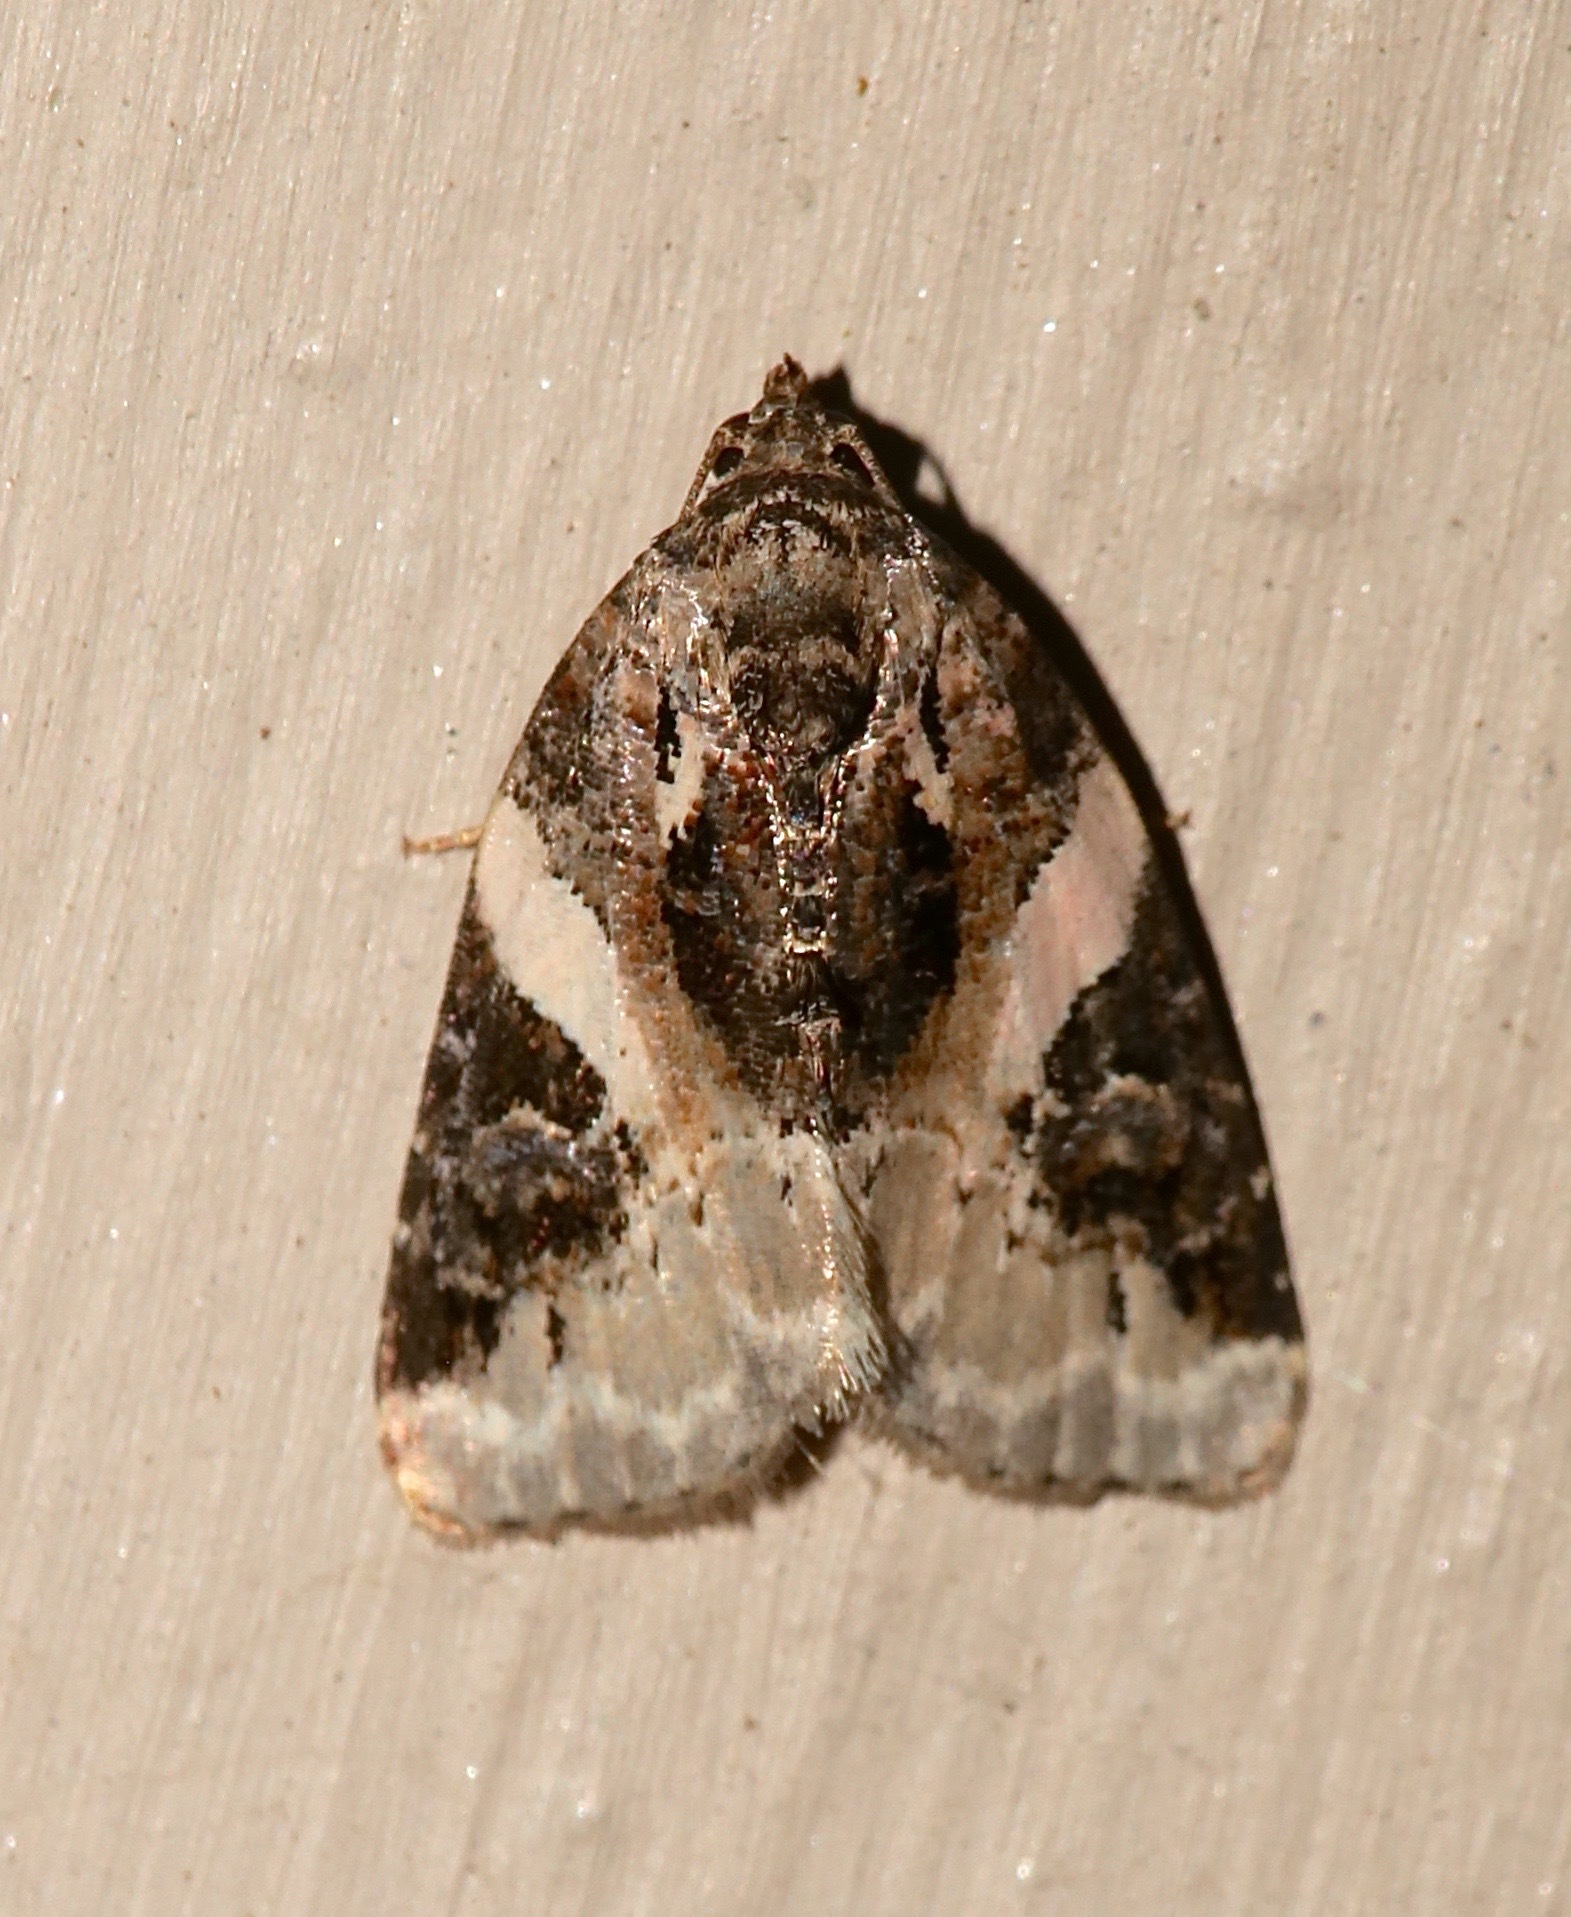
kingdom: Animalia
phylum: Arthropoda
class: Insecta
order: Lepidoptera
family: Noctuidae
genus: Pseudeustrotia
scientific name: Pseudeustrotia carneola
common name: Pink-barred lithacodia moth
